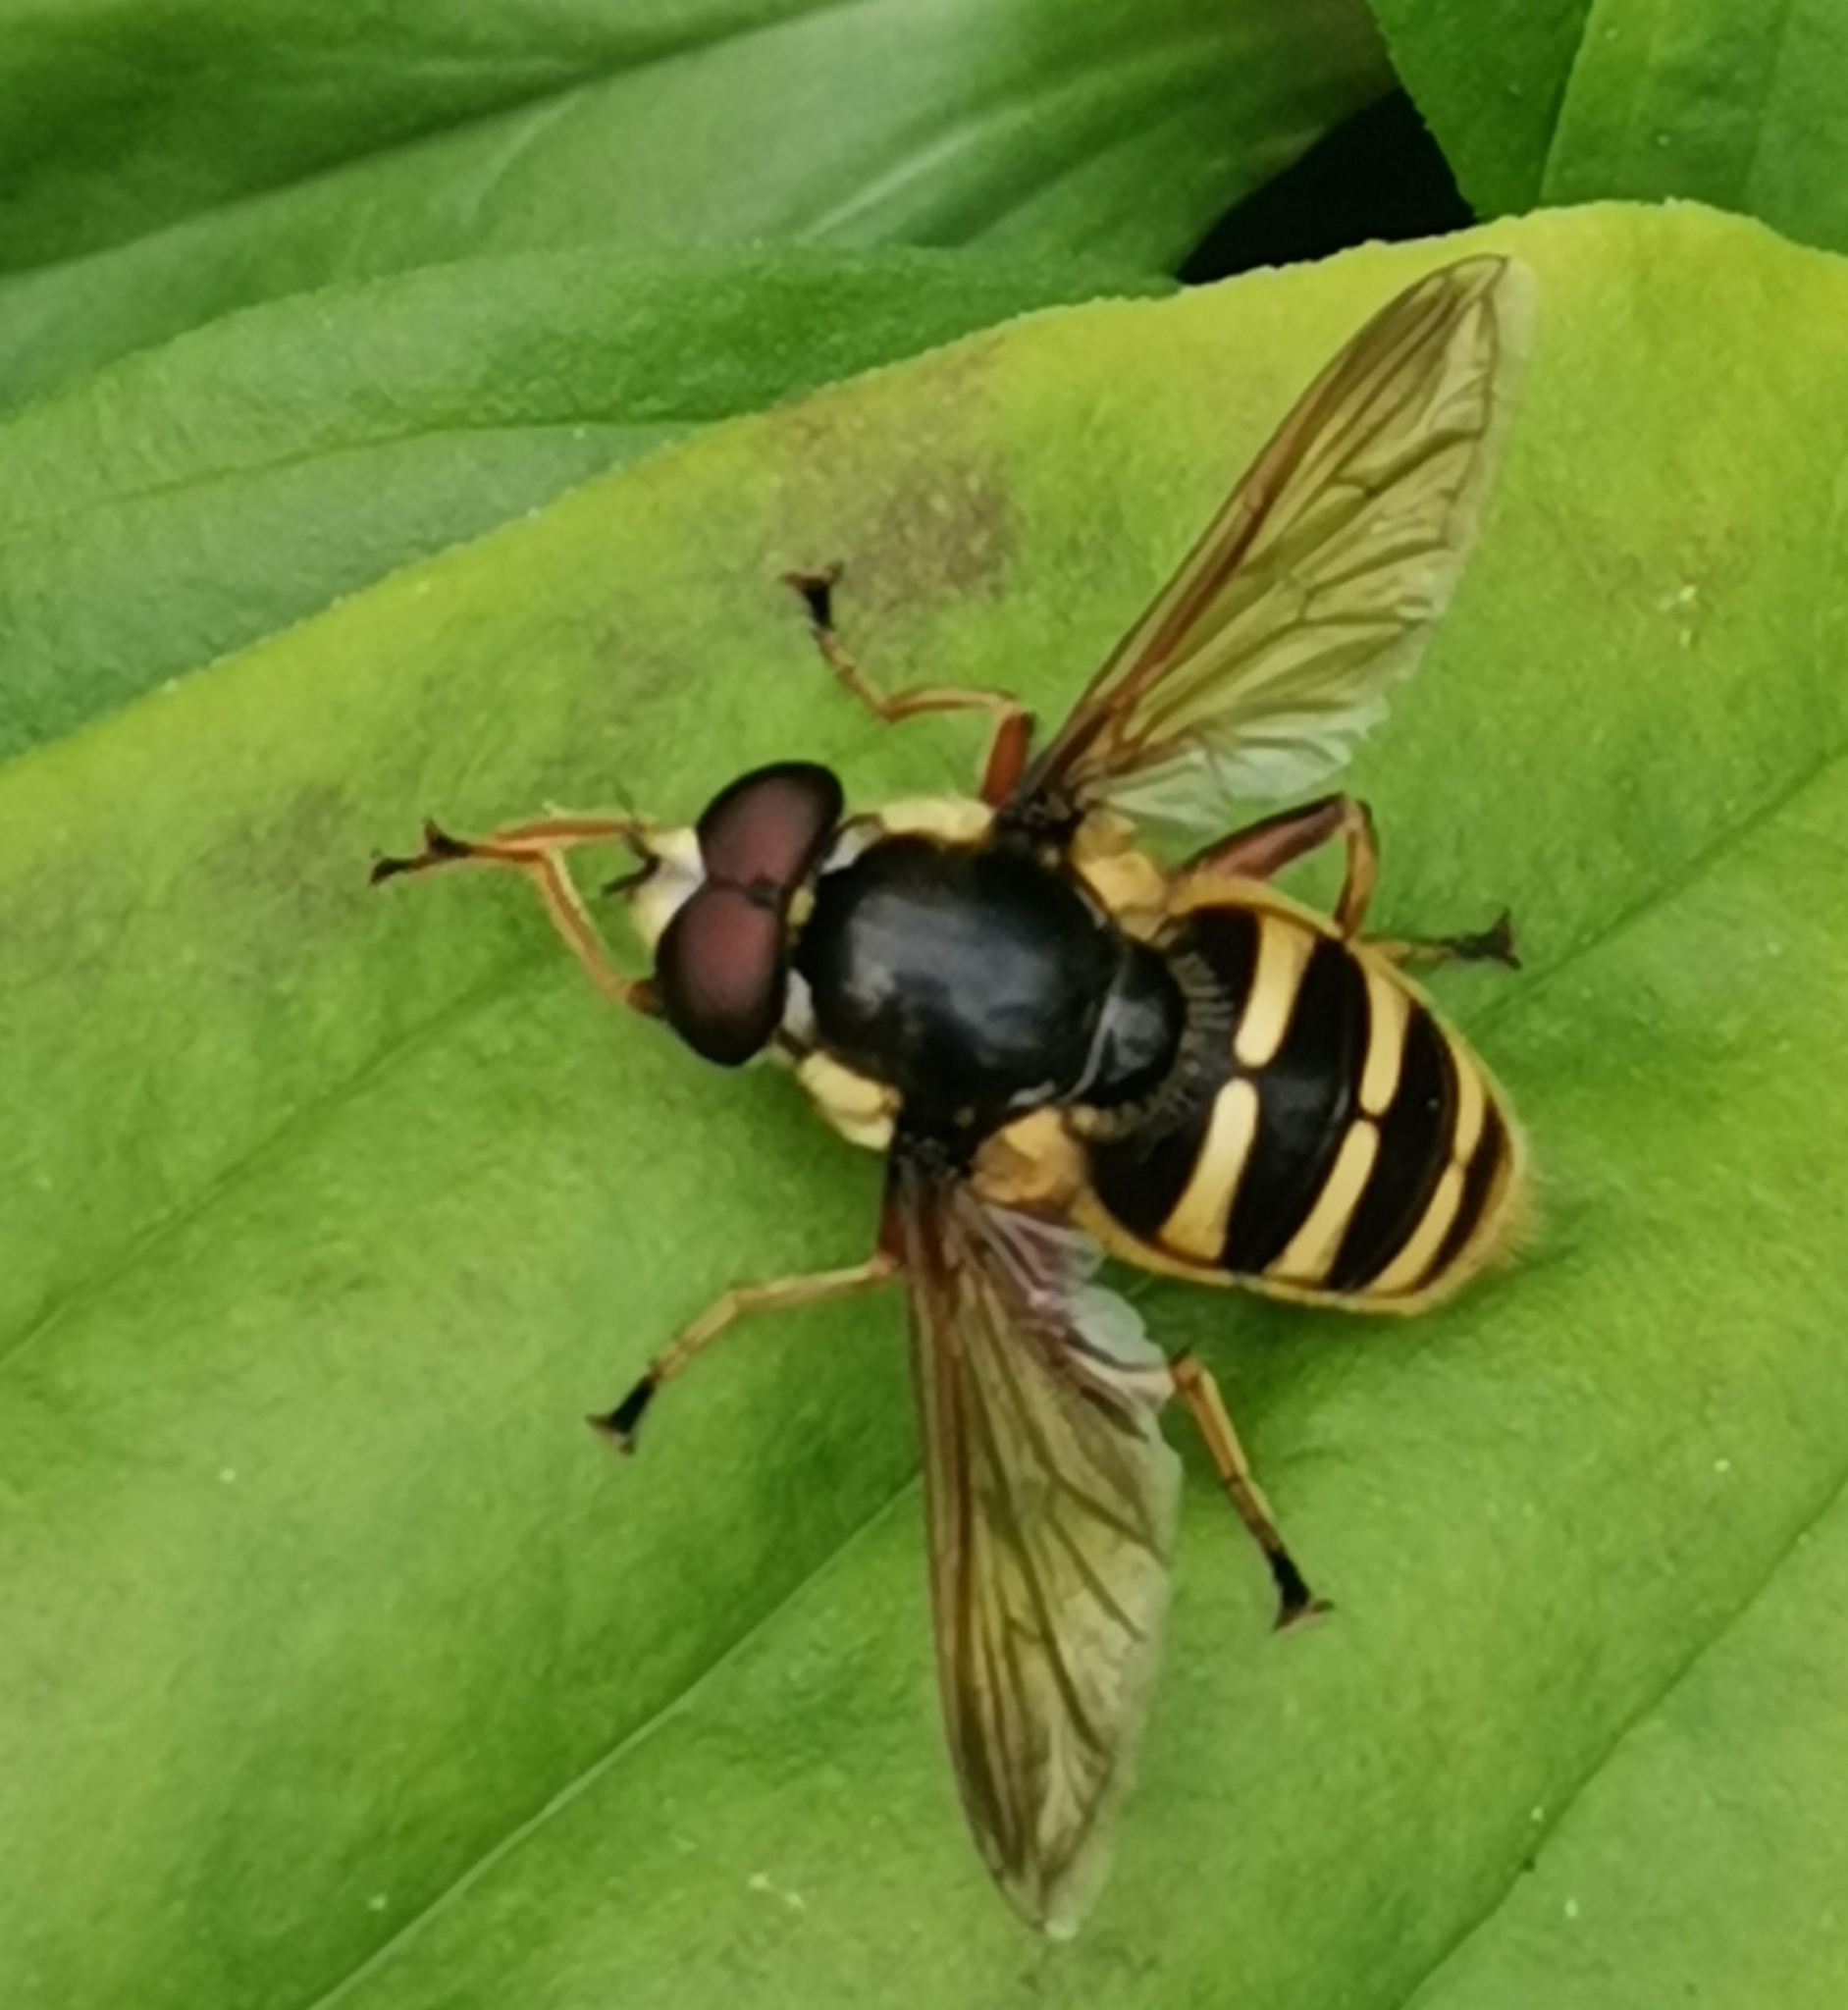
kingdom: Animalia
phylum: Arthropoda
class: Insecta
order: Diptera
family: Syrphidae
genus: Sericomyia
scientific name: Sericomyia silentis
